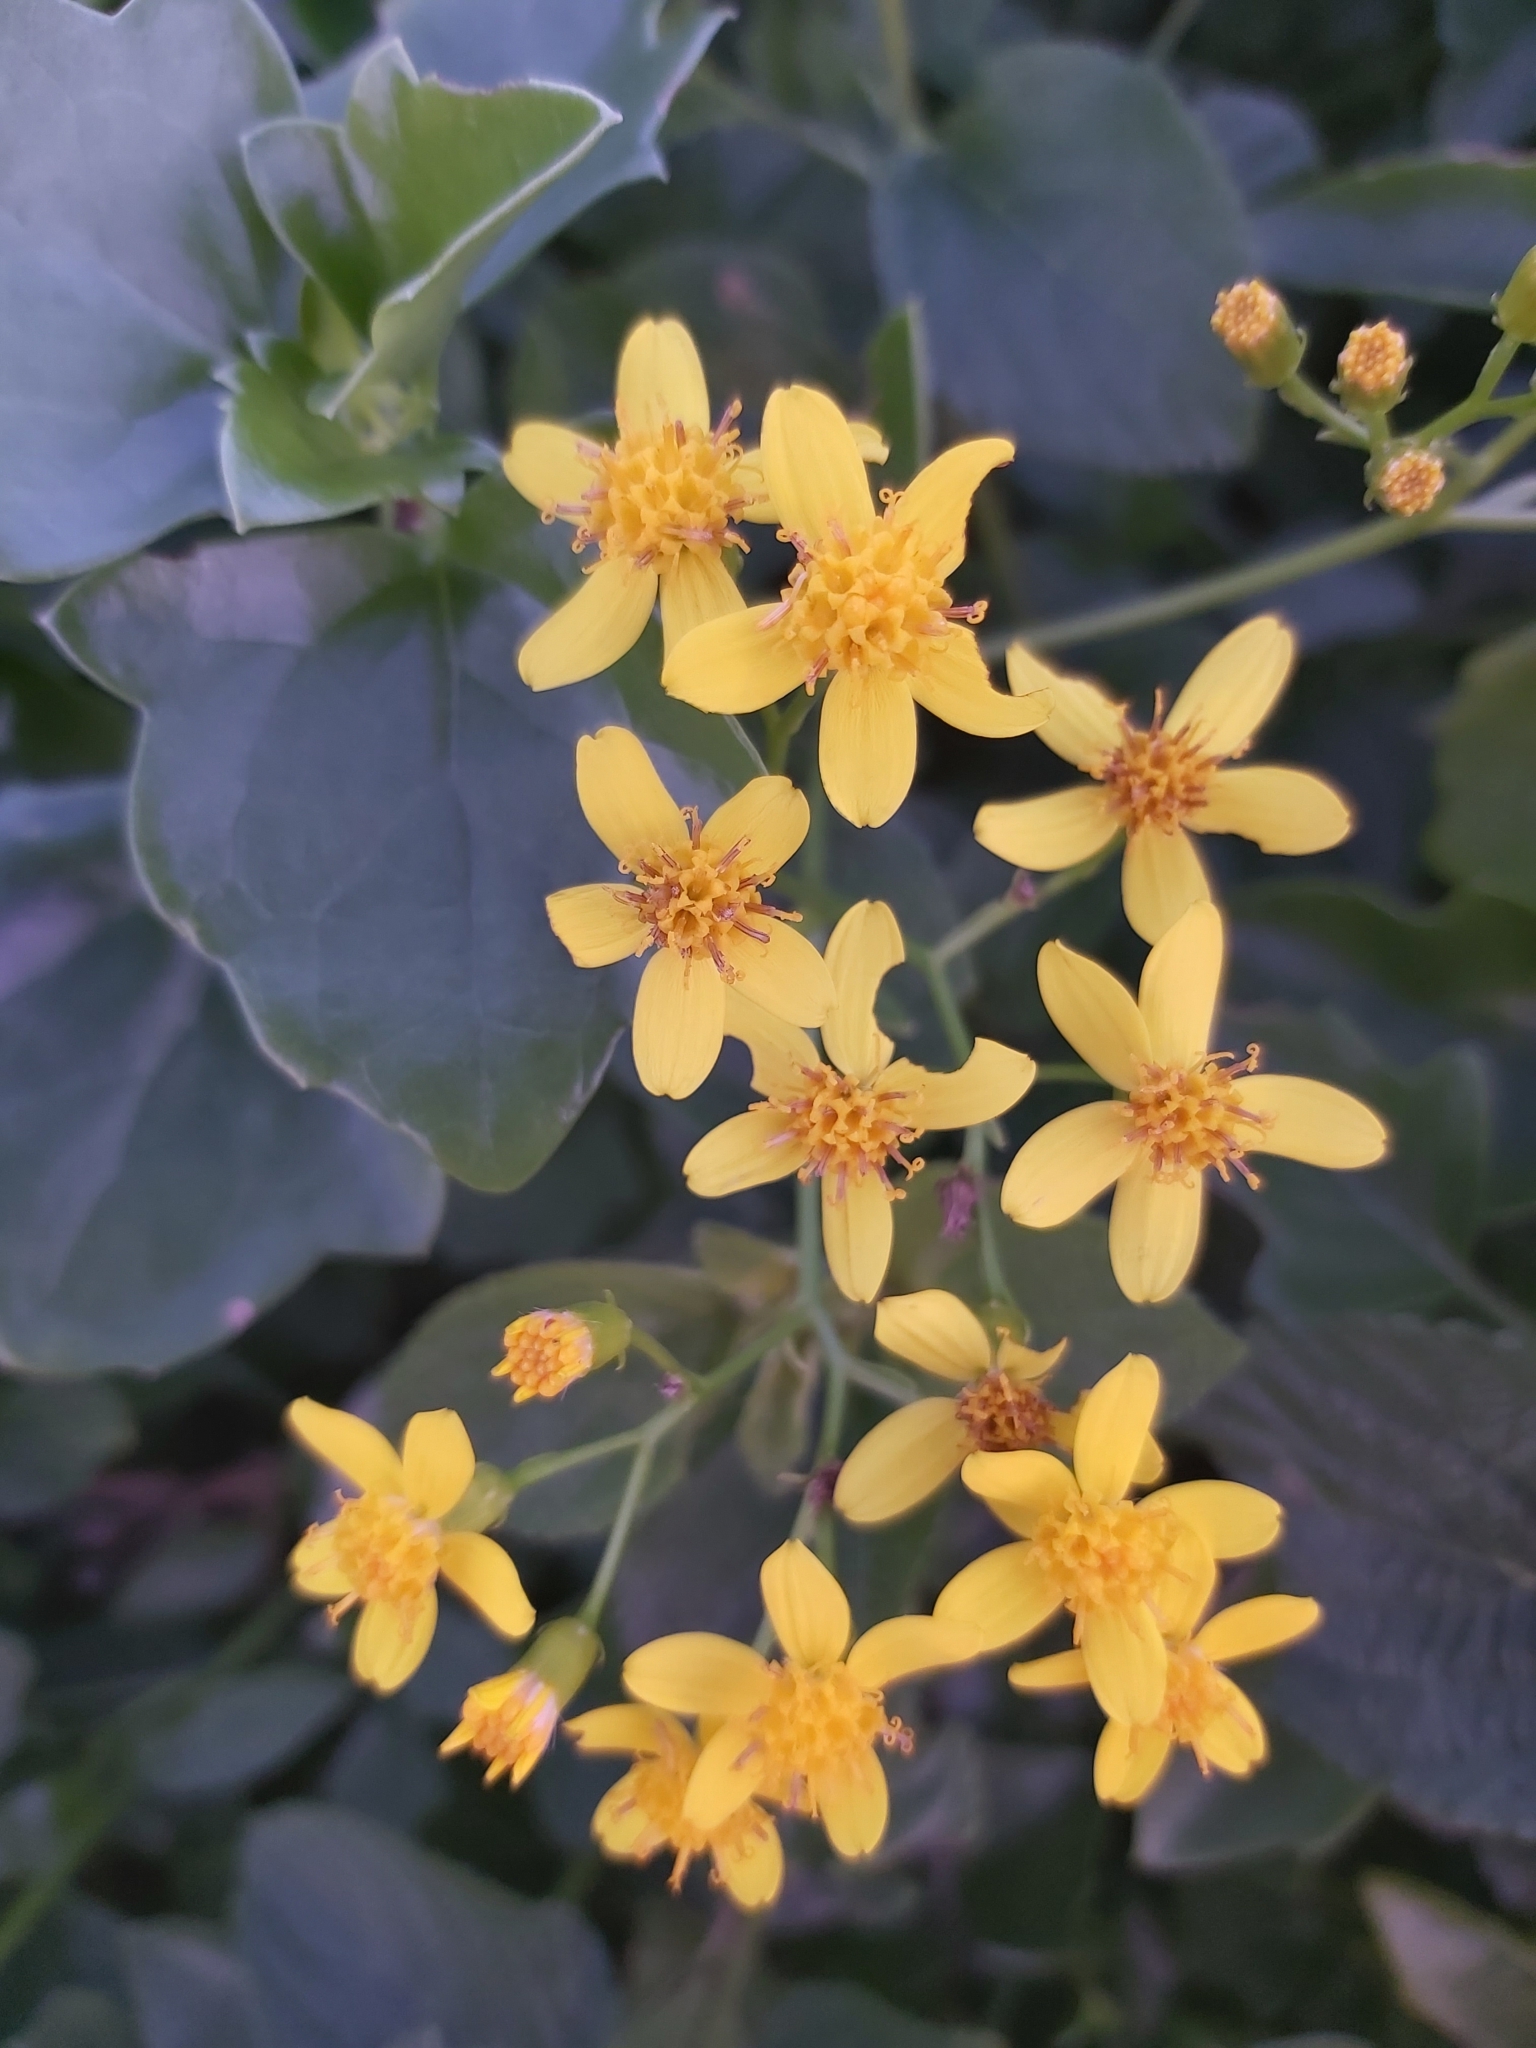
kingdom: Plantae
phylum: Tracheophyta
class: Magnoliopsida
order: Asterales
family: Asteraceae
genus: Senecio
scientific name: Senecio angulatus
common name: Climbing groundsel
